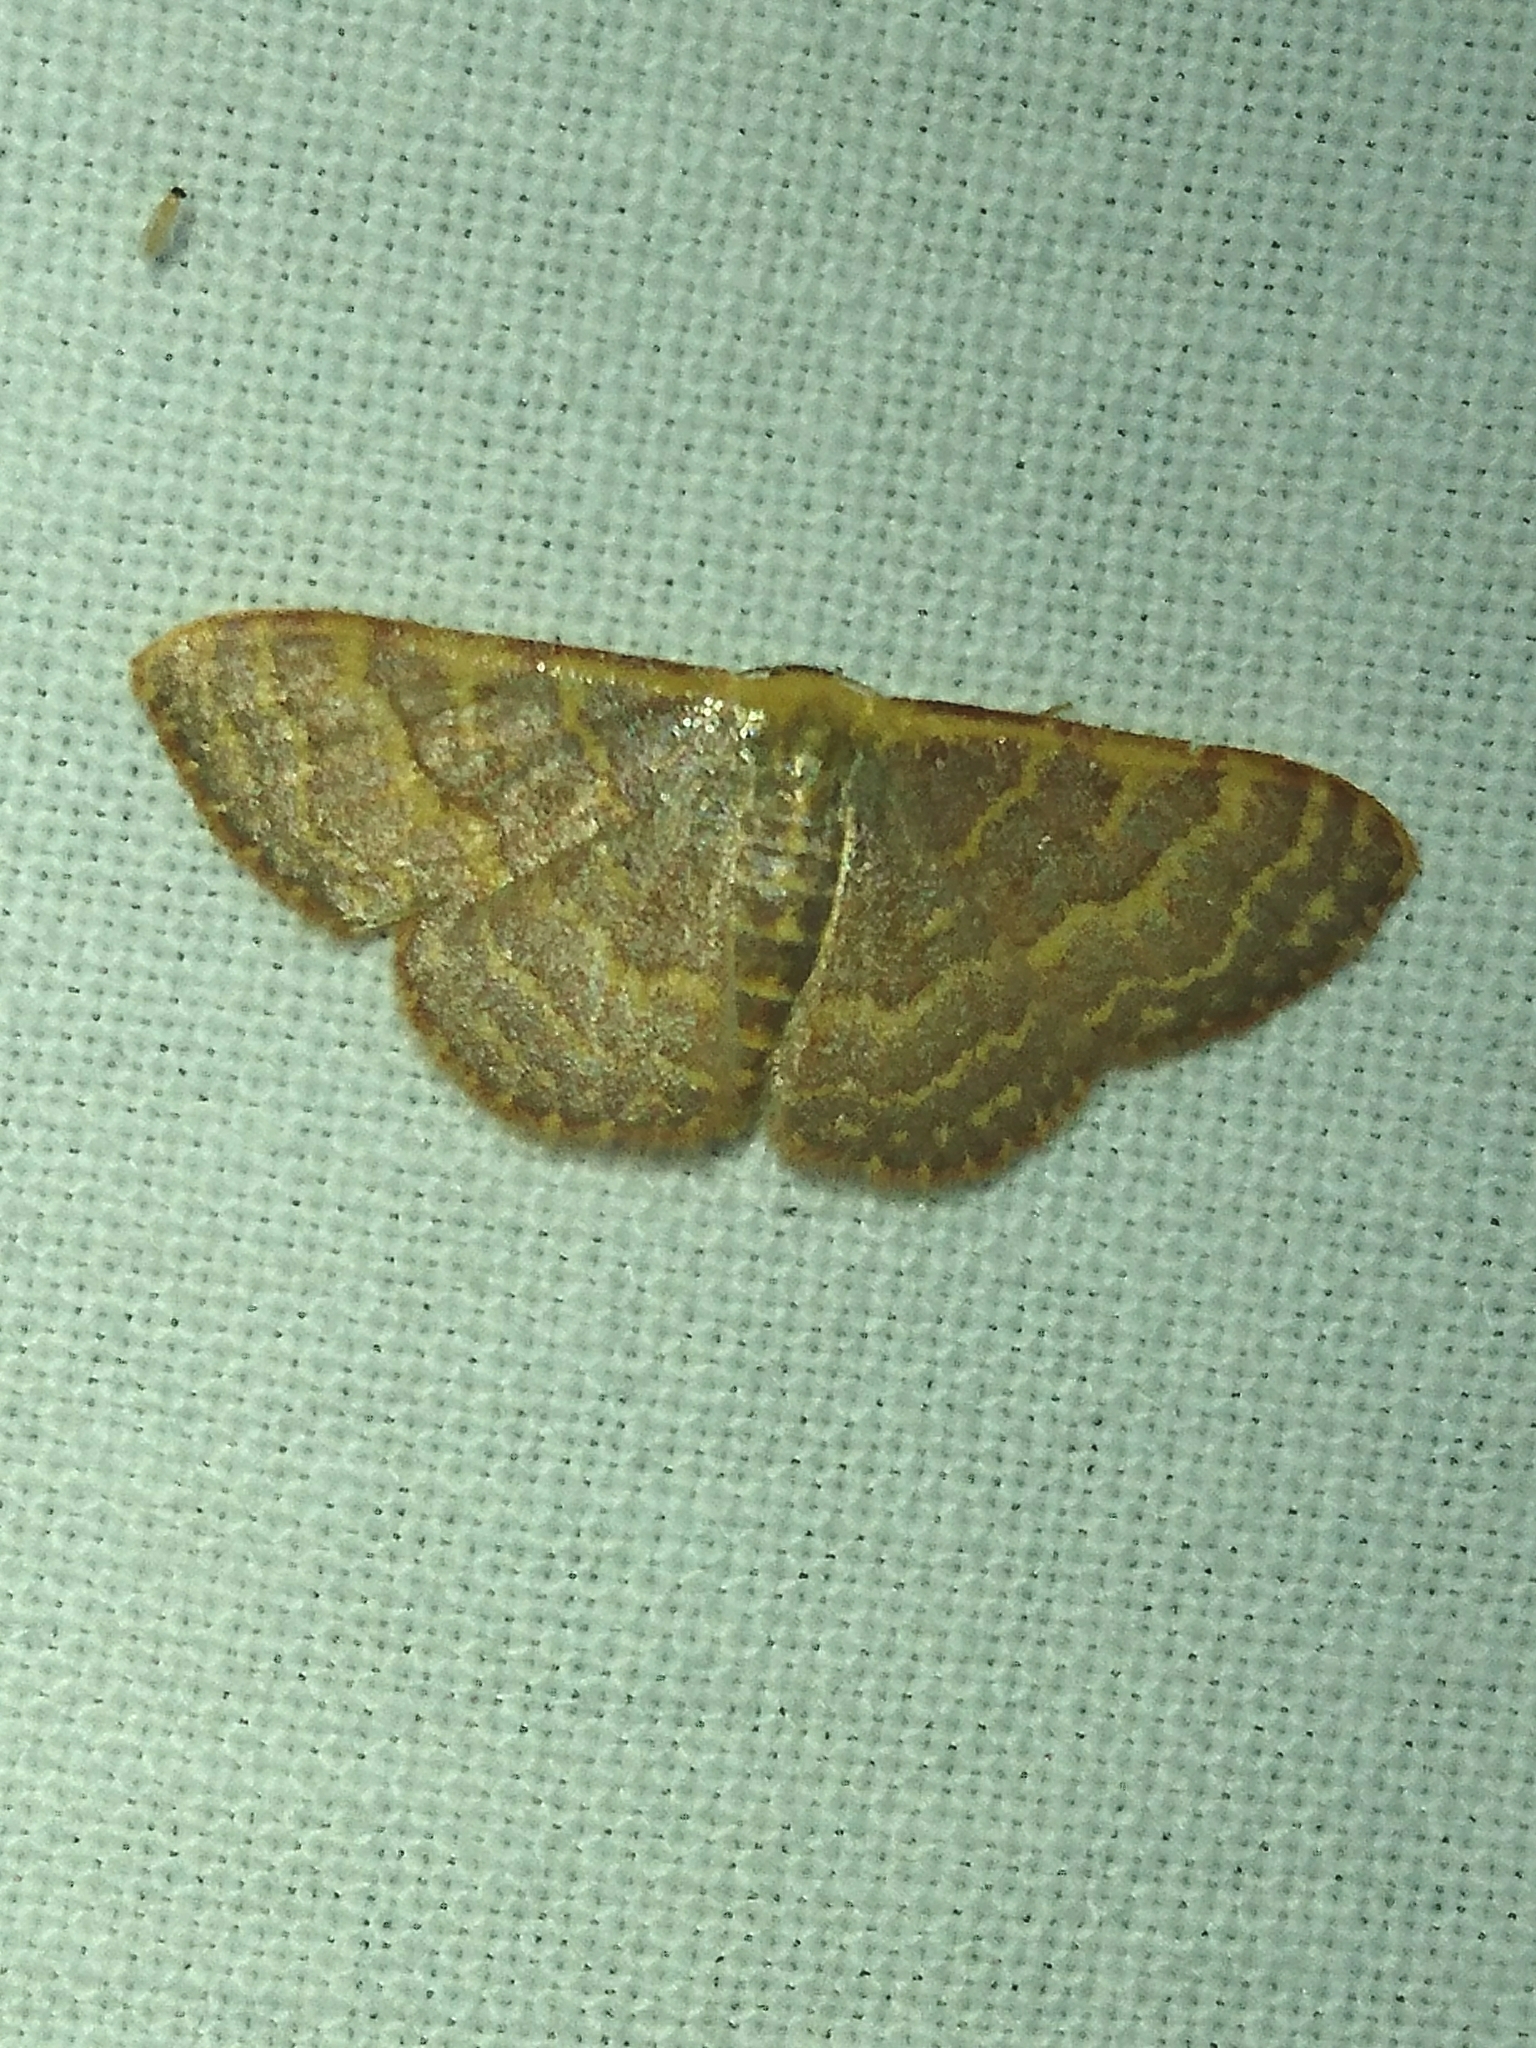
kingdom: Animalia
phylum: Arthropoda
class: Insecta
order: Lepidoptera
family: Geometridae
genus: Leptostales
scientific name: Leptostales pannaria
